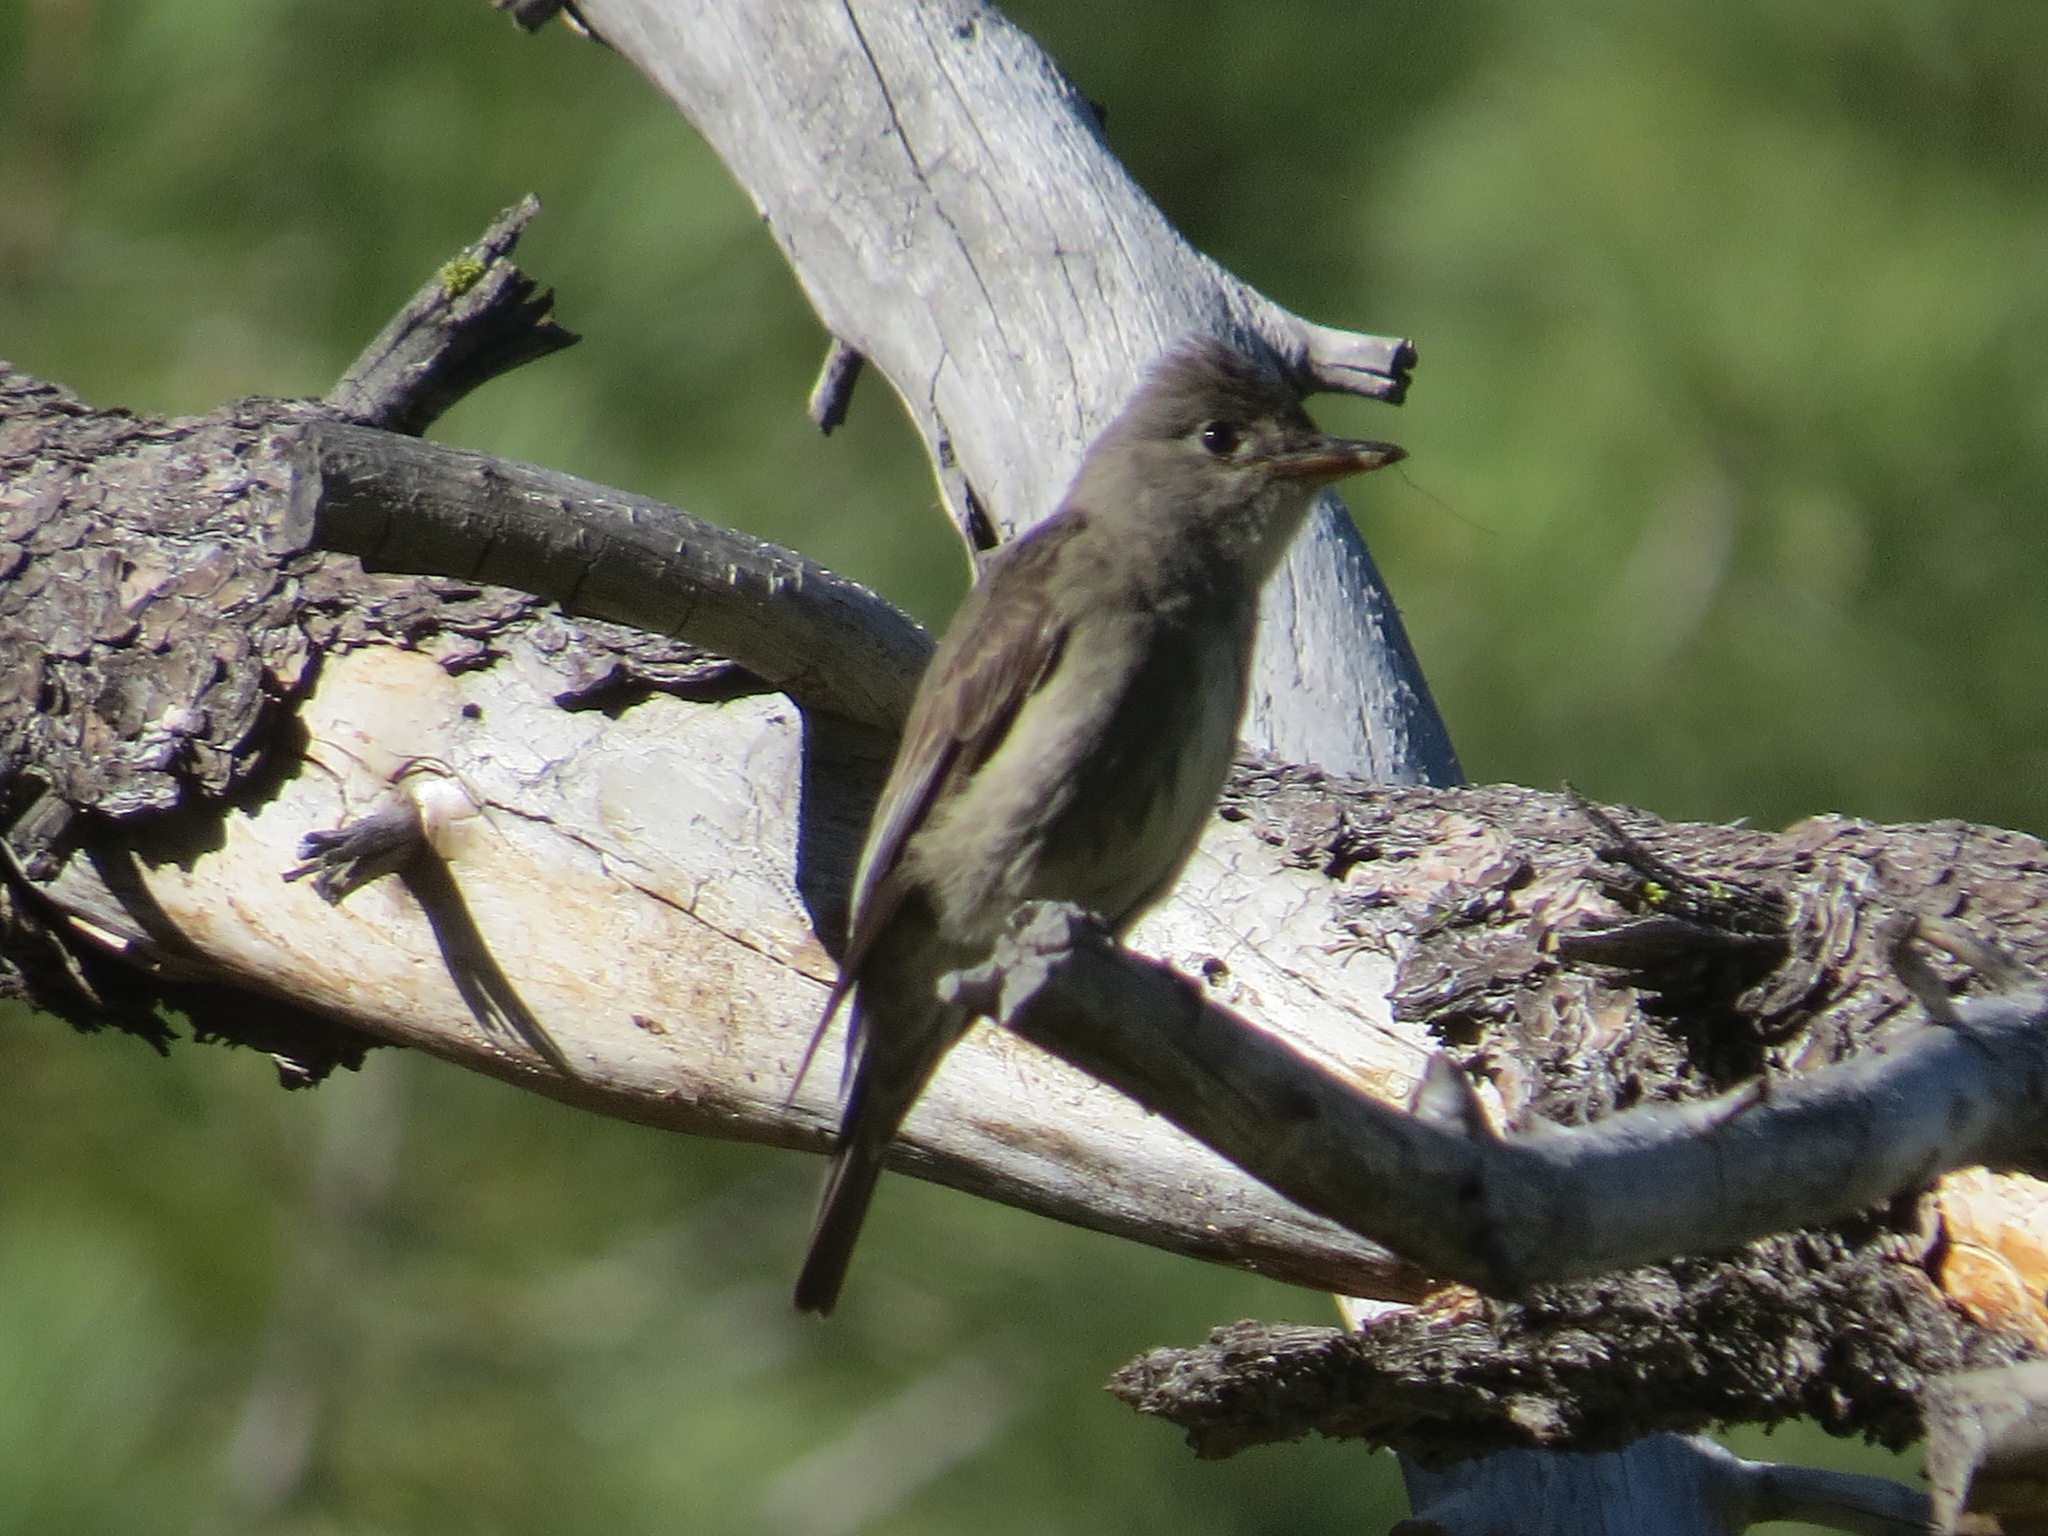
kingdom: Animalia
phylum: Chordata
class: Aves
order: Passeriformes
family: Tyrannidae
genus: Contopus
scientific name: Contopus sordidulus
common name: Western wood-pewee
